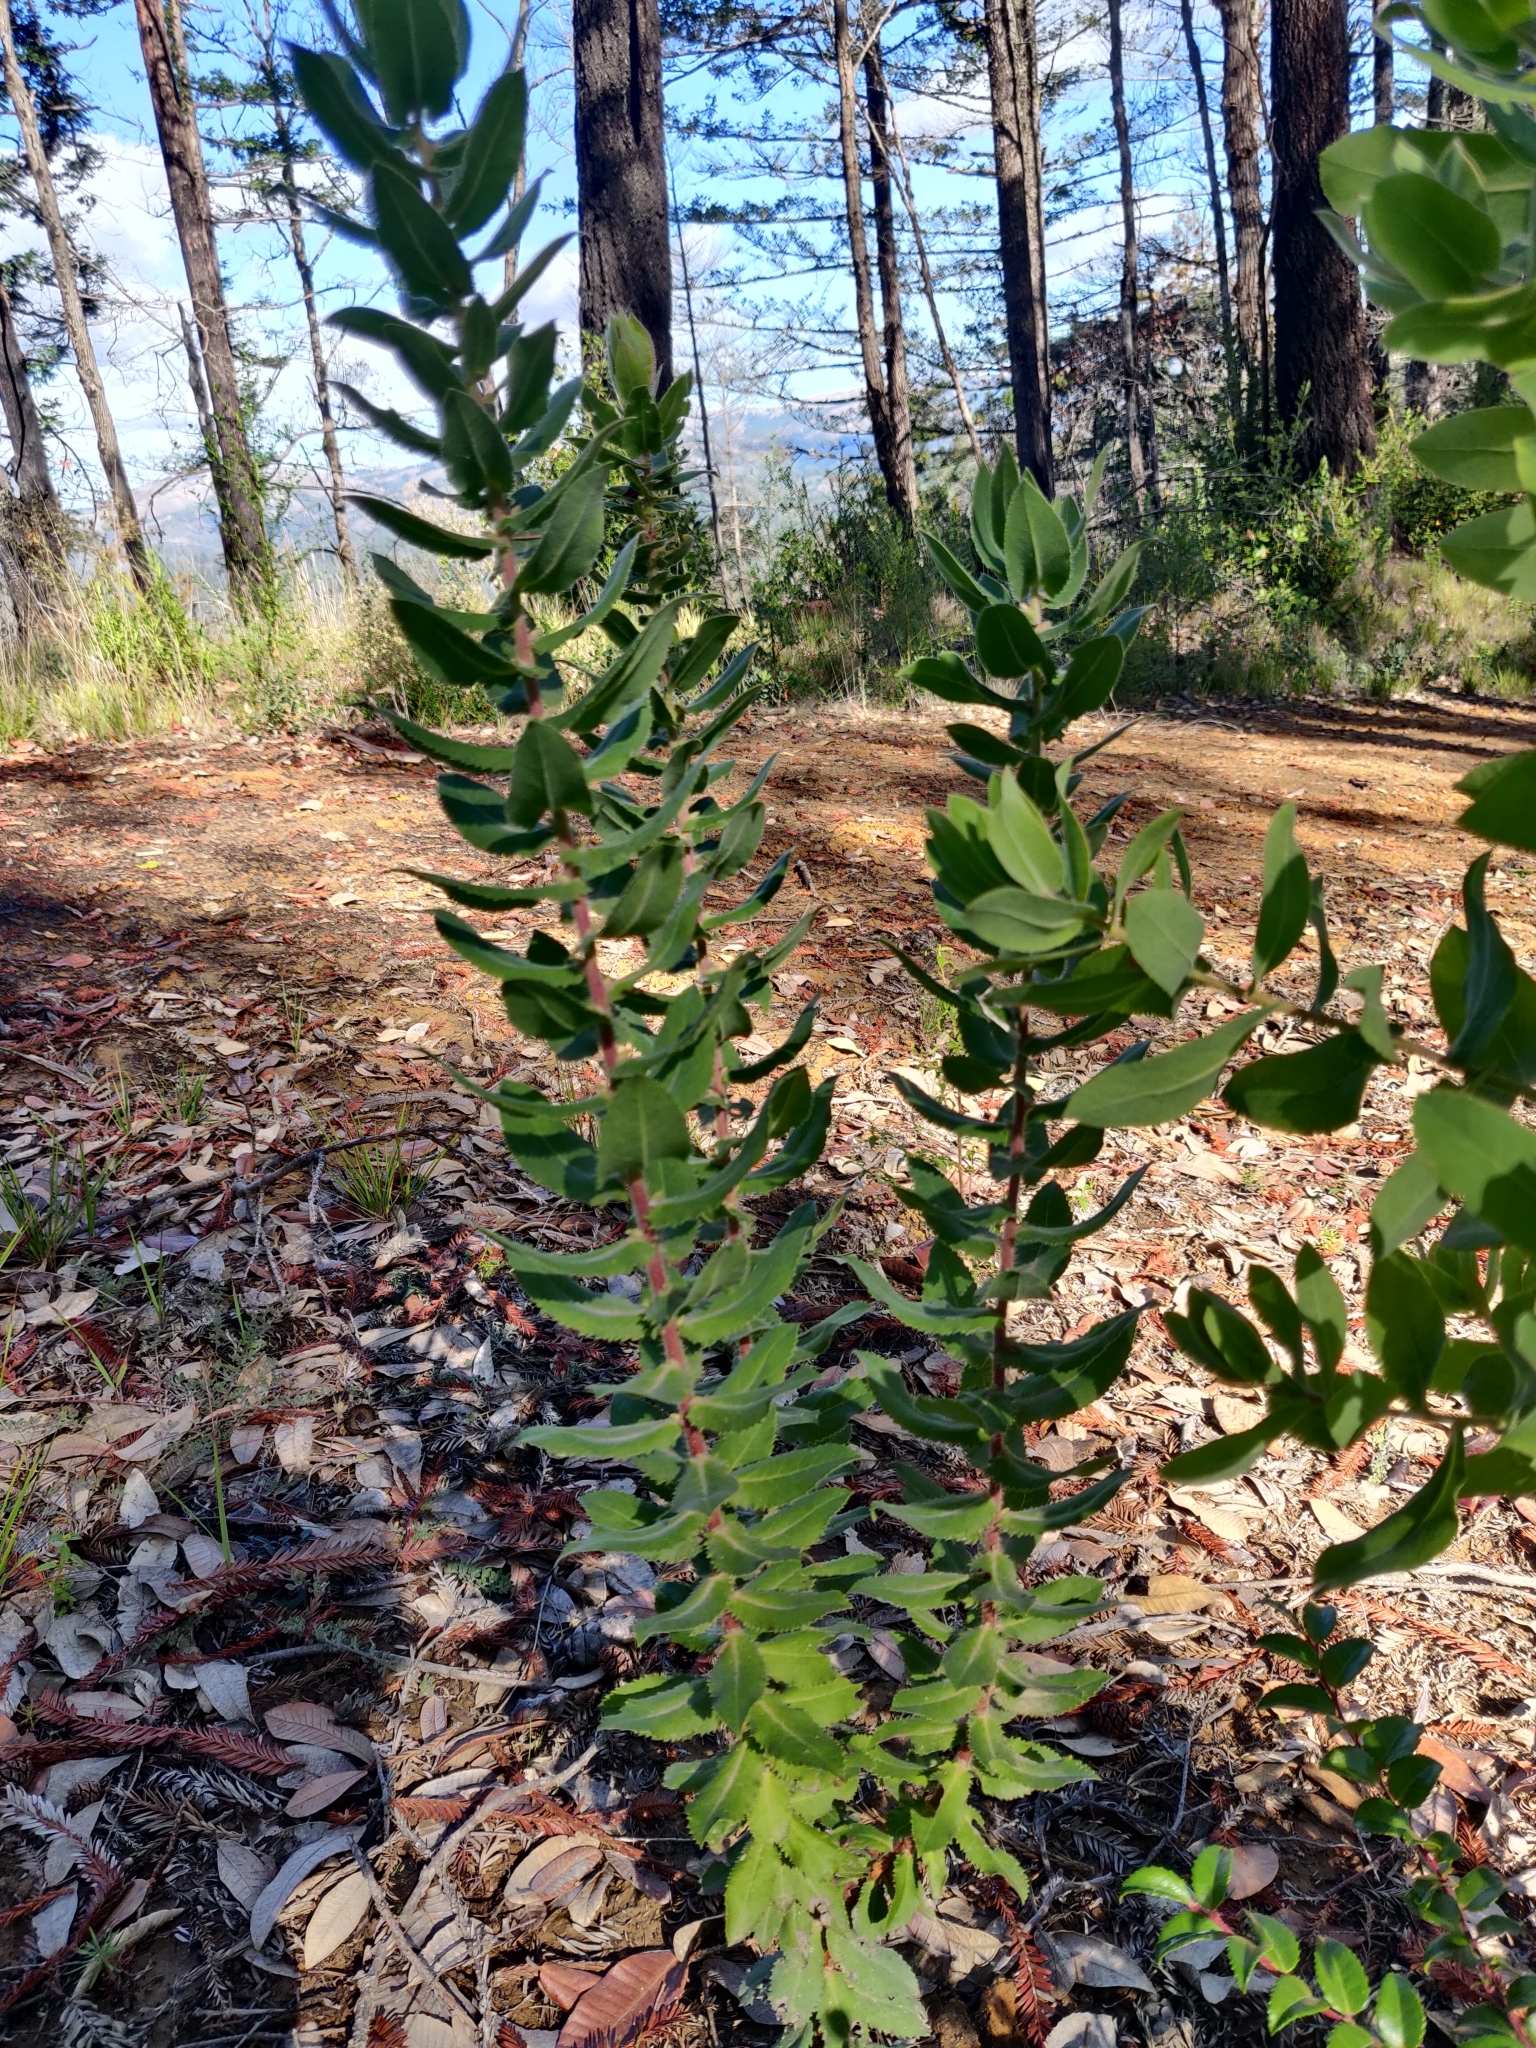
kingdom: Plantae
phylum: Tracheophyta
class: Magnoliopsida
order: Ericales
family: Ericaceae
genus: Arctostaphylos
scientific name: Arctostaphylos andersonii
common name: Santa cruz manzanita
